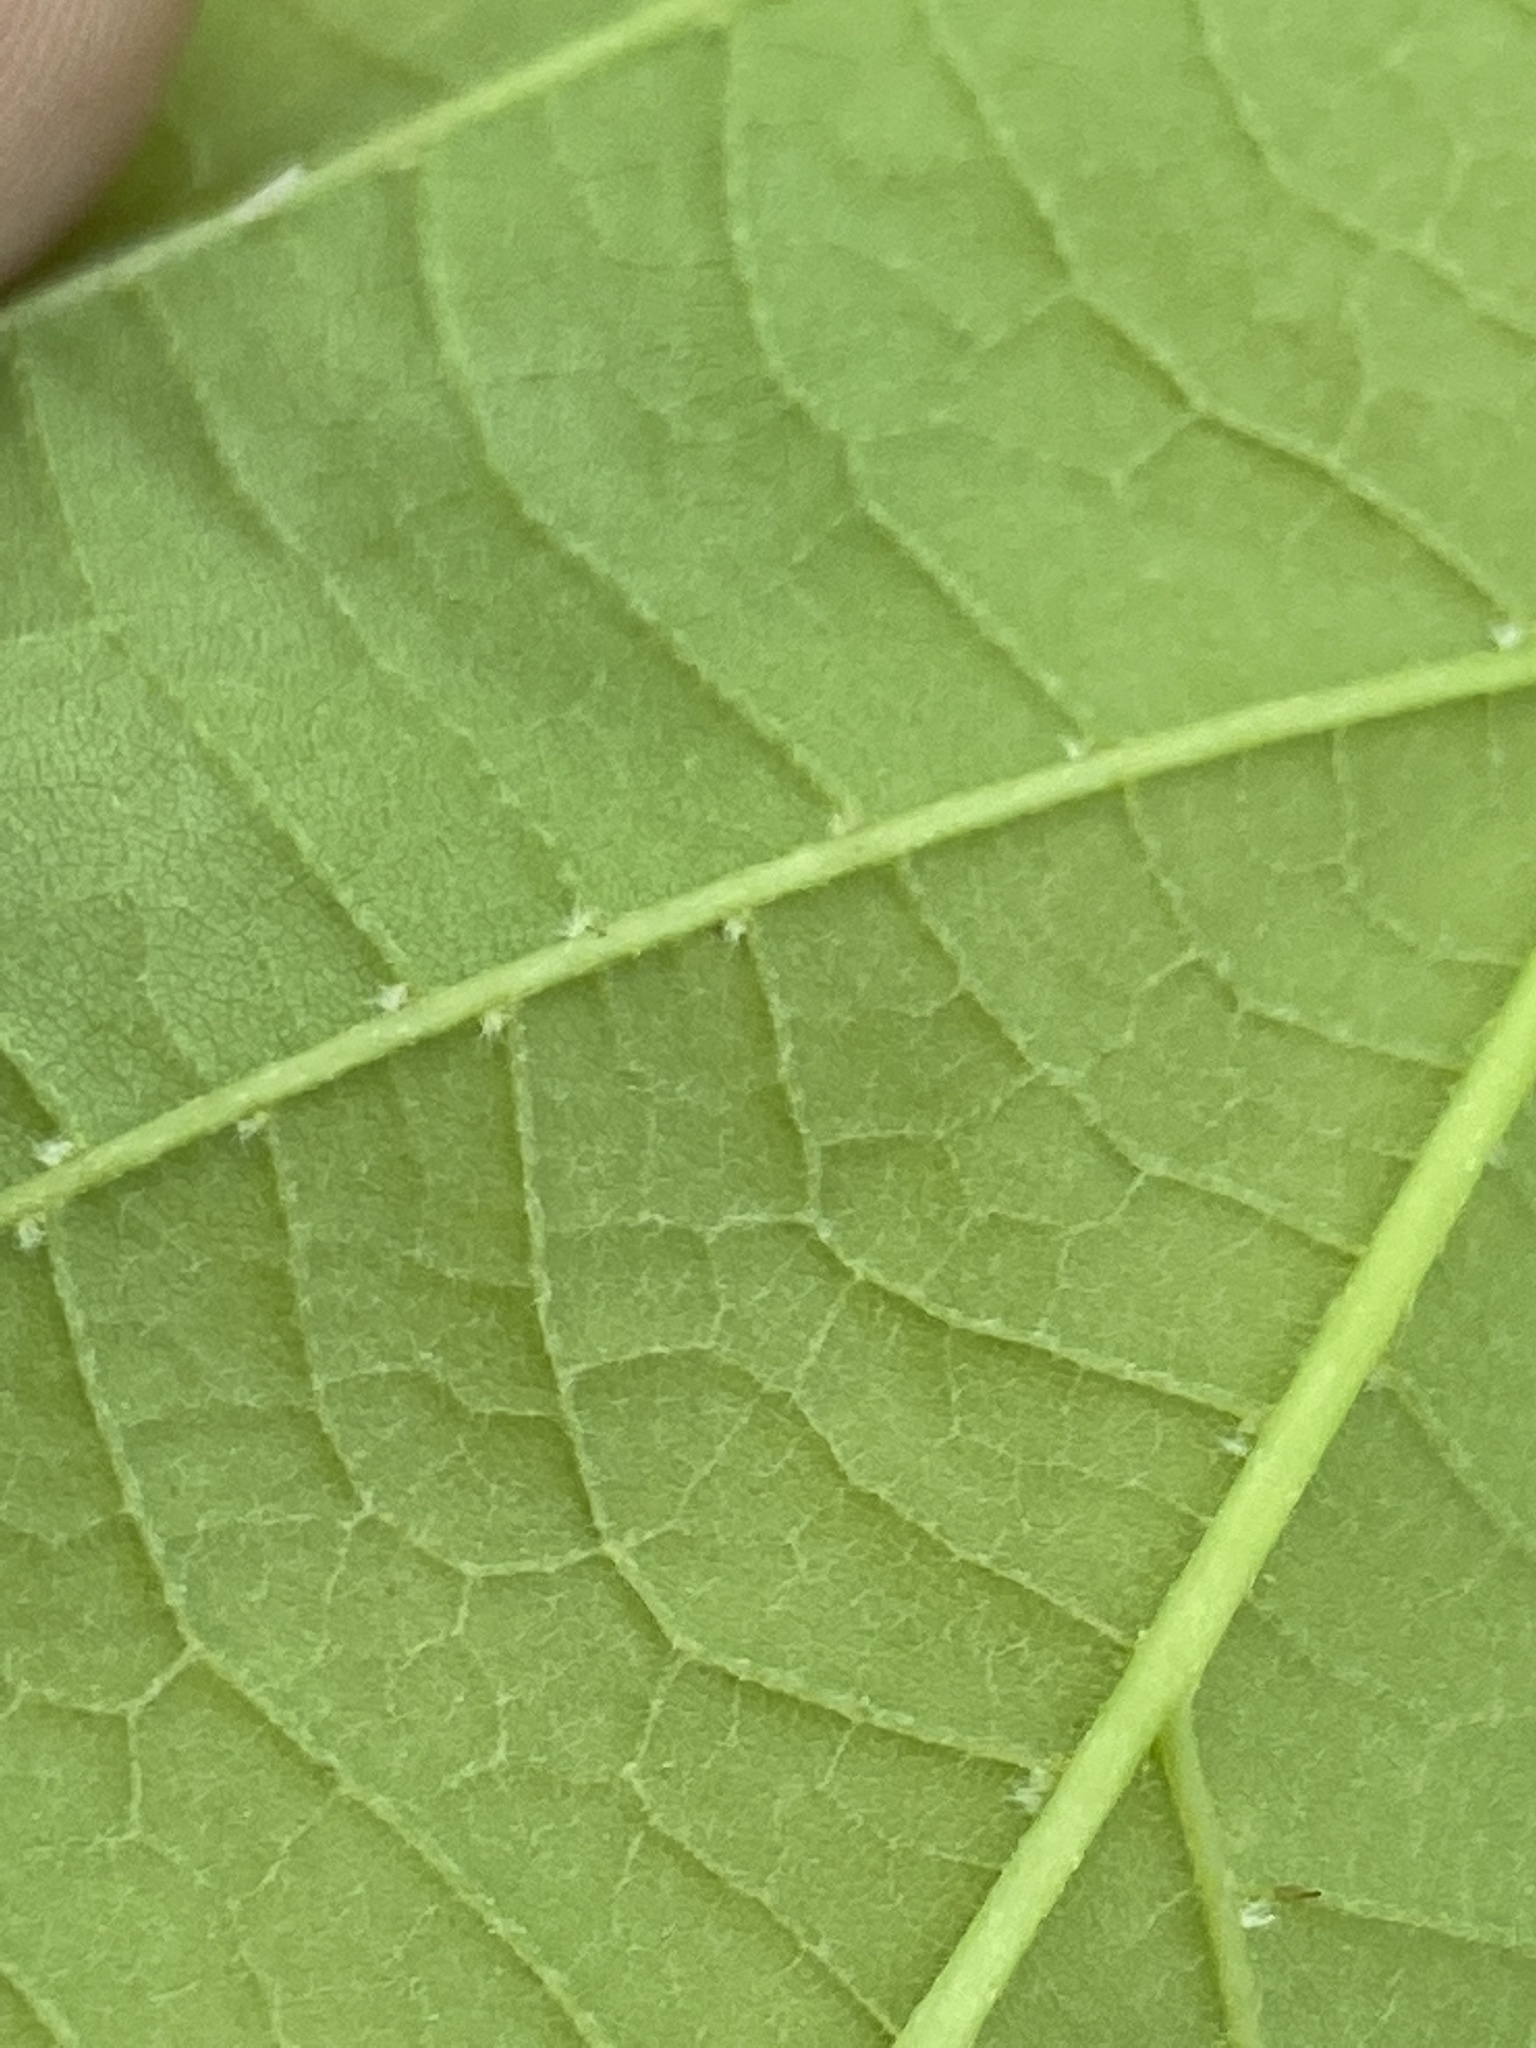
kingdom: Plantae
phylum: Tracheophyta
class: Magnoliopsida
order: Malvales
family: Malvaceae
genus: Tilia
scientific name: Tilia americana
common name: Basswood
